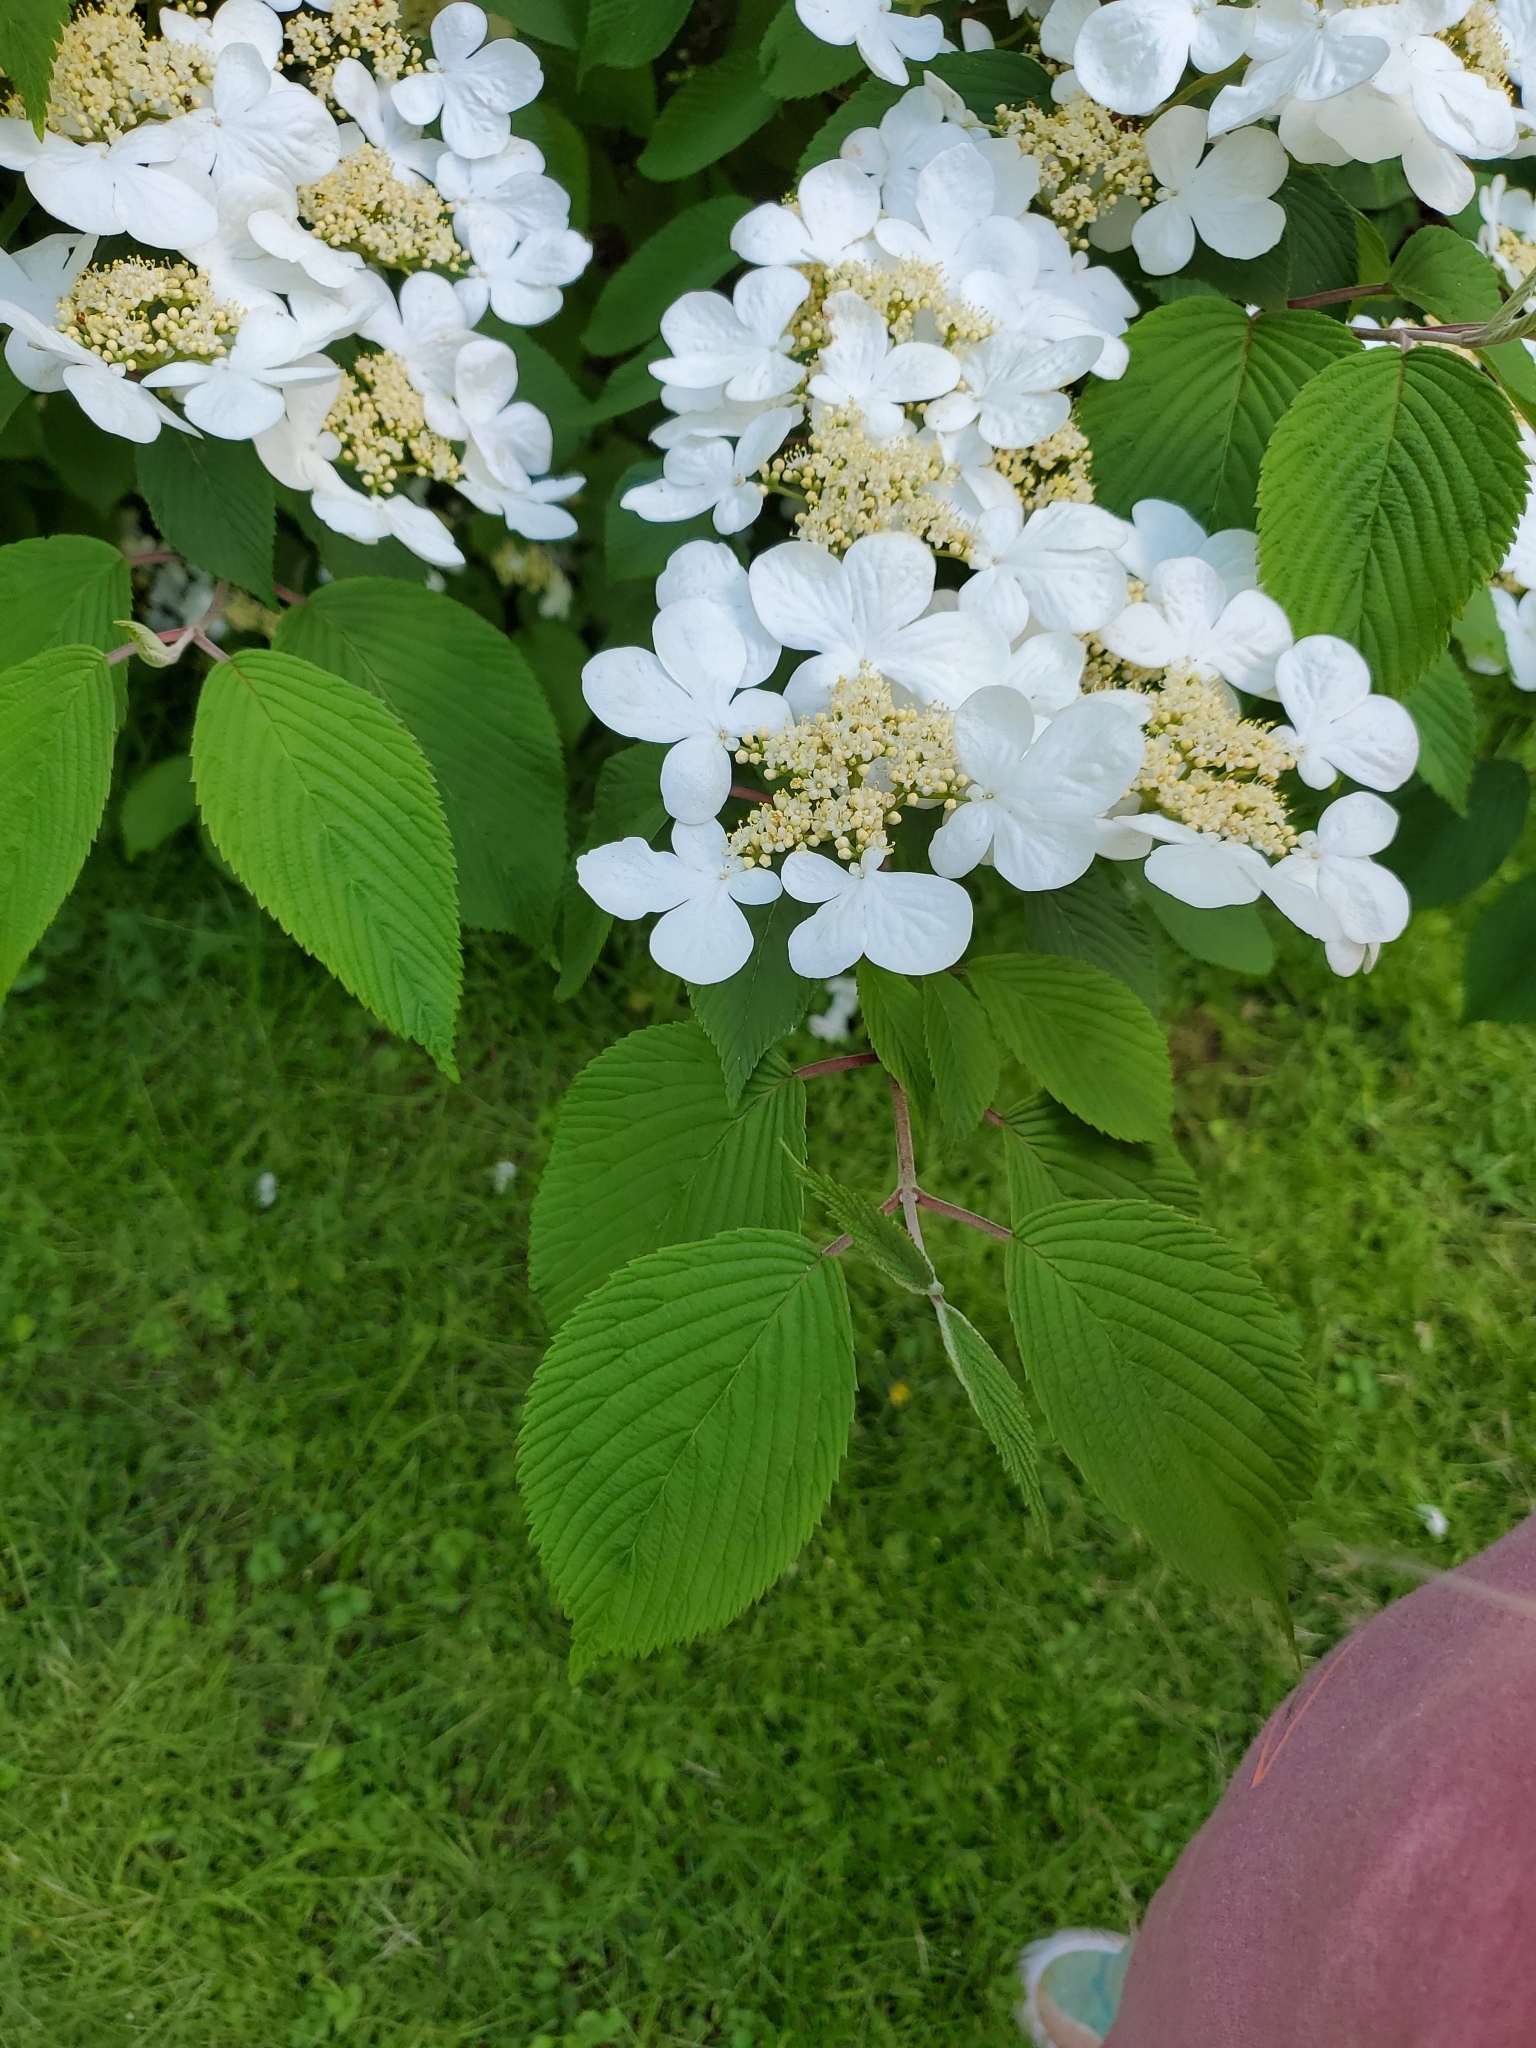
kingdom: Plantae
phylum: Tracheophyta
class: Magnoliopsida
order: Dipsacales
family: Viburnaceae
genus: Viburnum
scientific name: Viburnum plicatum
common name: Japanese snowball
